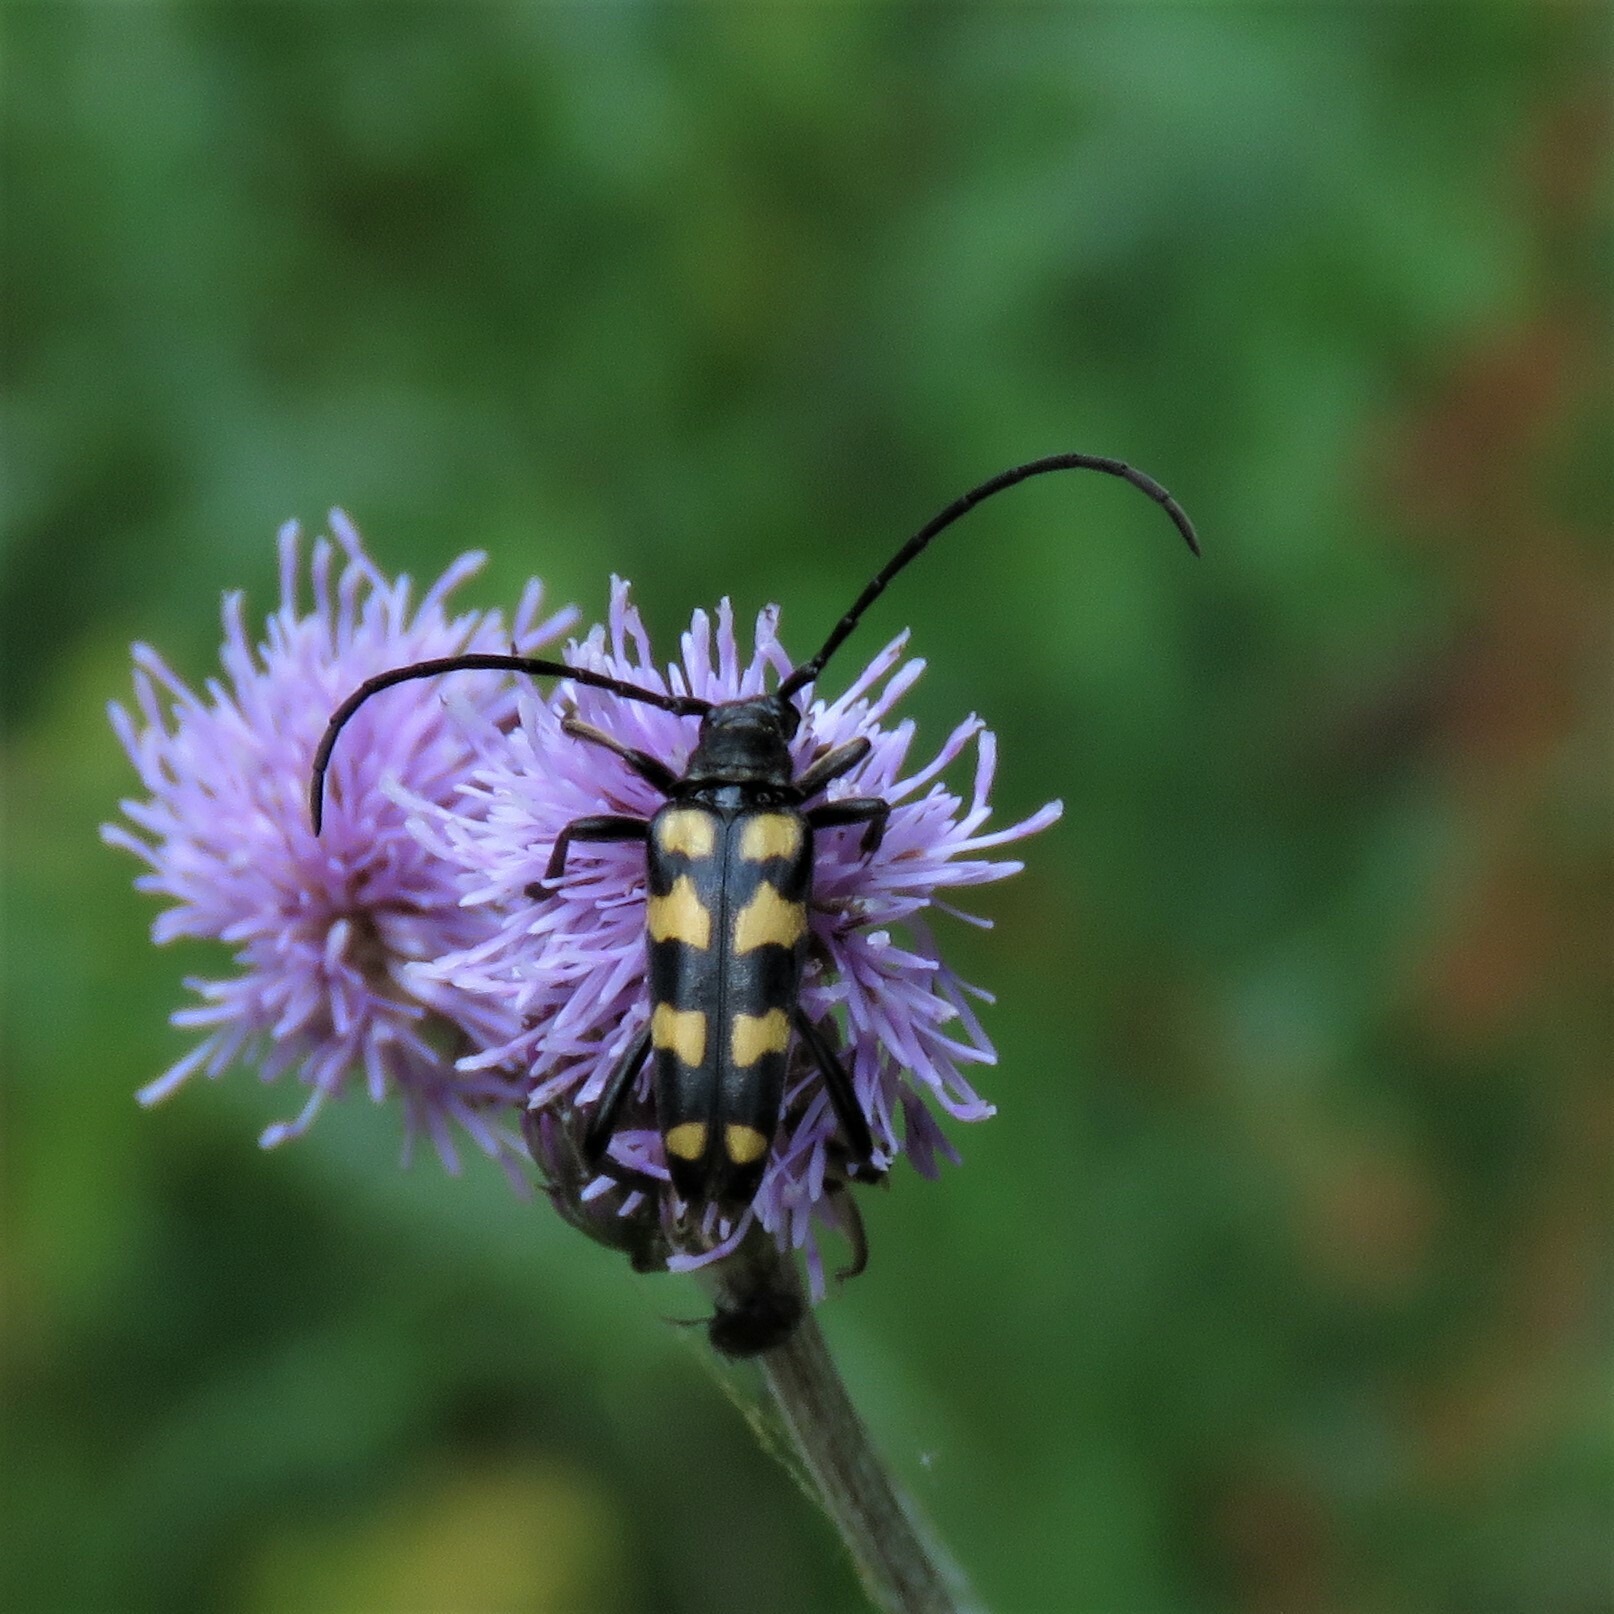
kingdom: Animalia
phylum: Arthropoda
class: Insecta
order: Coleoptera
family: Cerambycidae
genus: Leptura
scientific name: Leptura quadrifasciata
